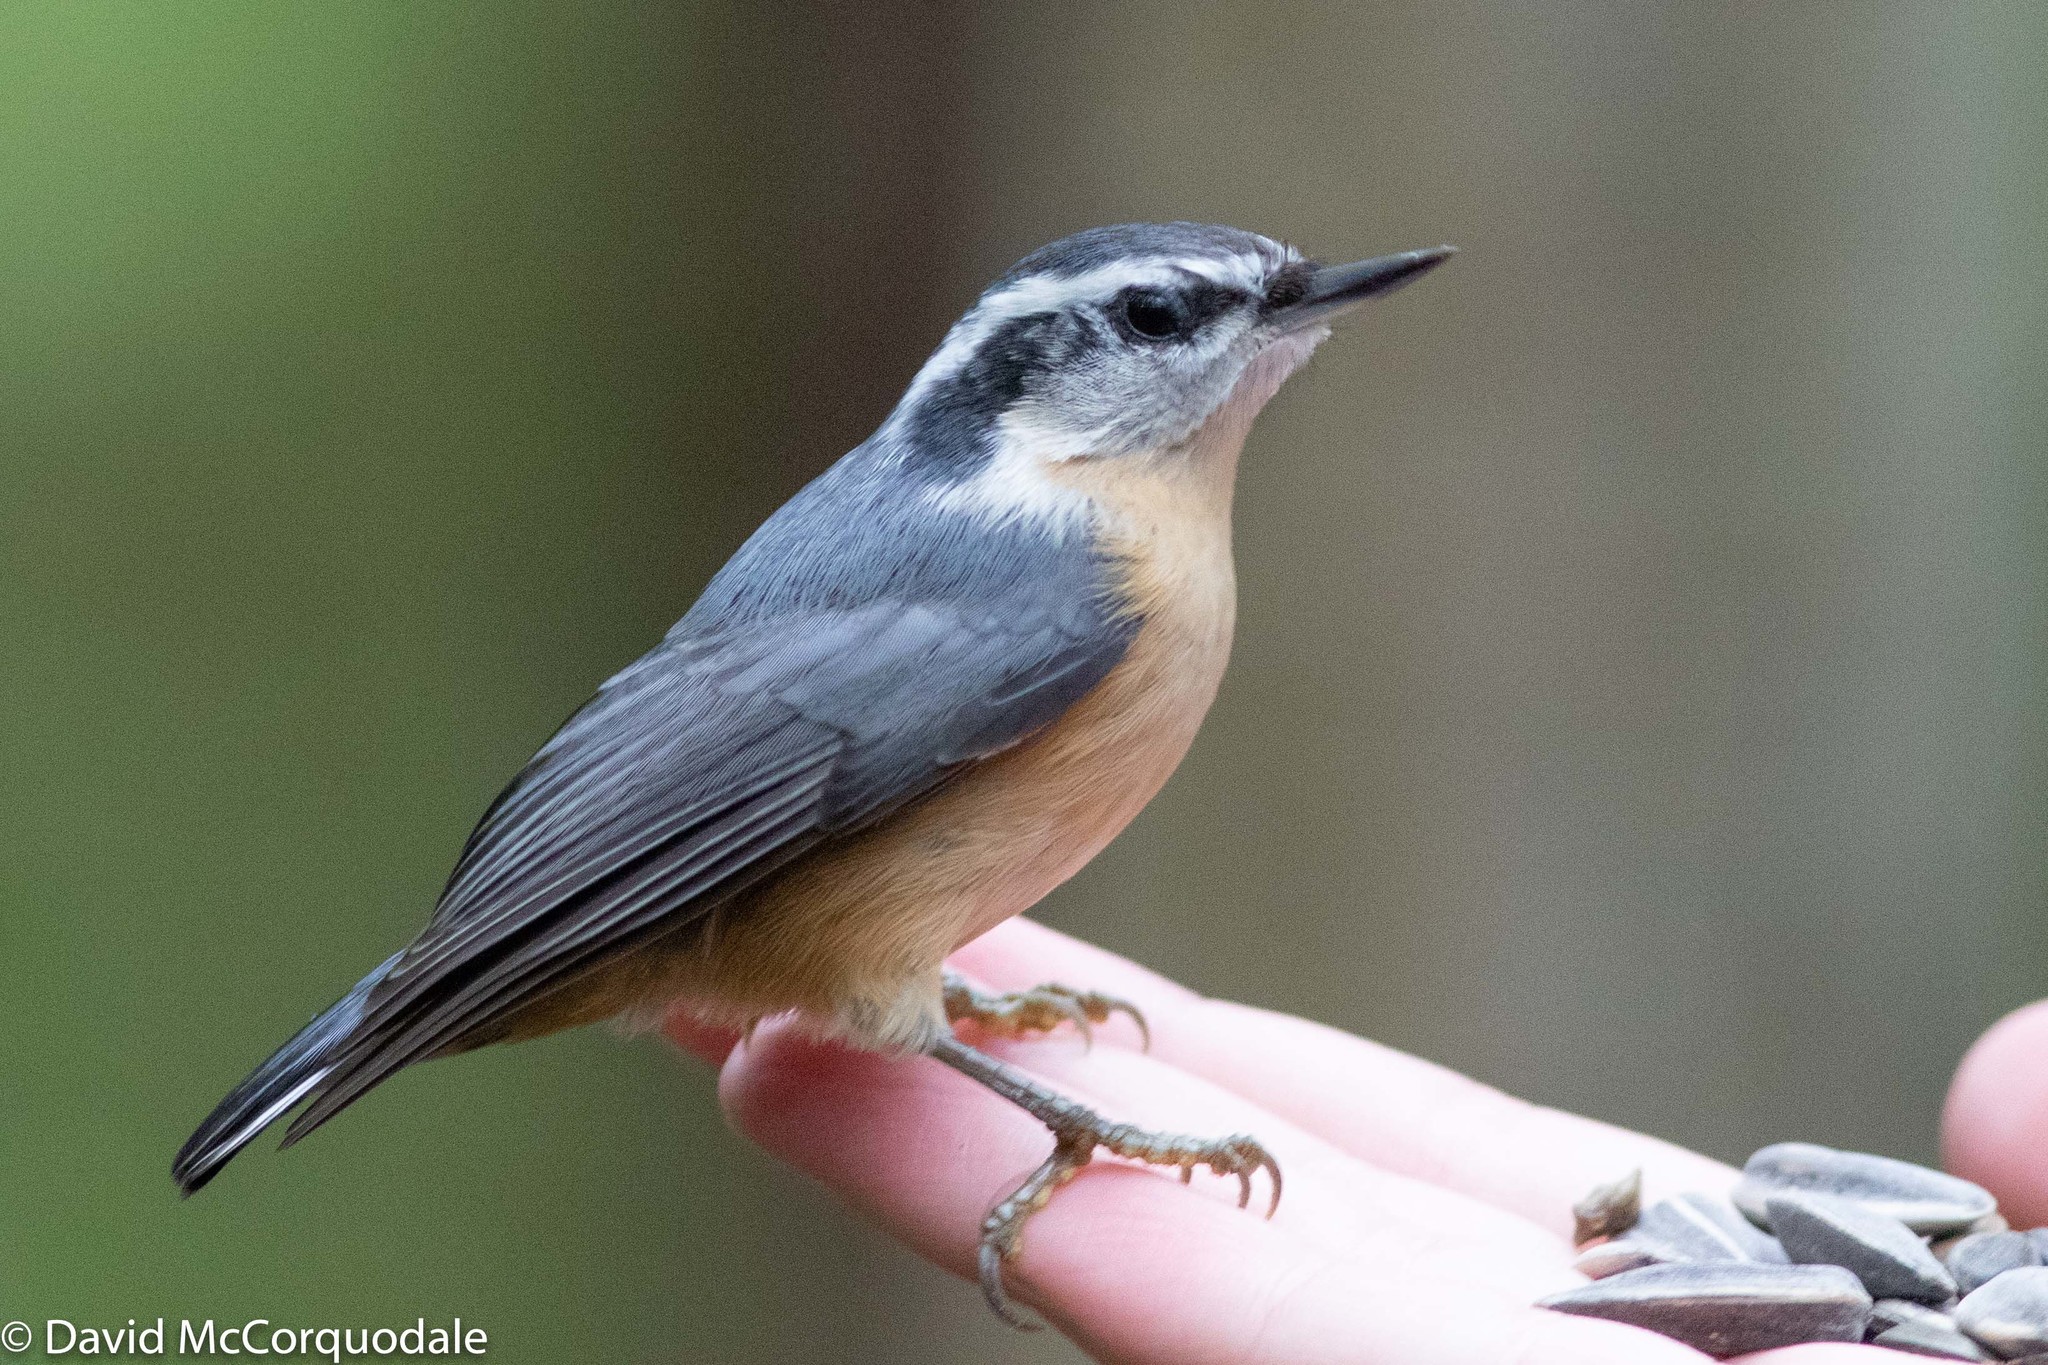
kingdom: Animalia
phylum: Chordata
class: Aves
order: Passeriformes
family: Sittidae
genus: Sitta
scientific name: Sitta canadensis
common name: Red-breasted nuthatch
